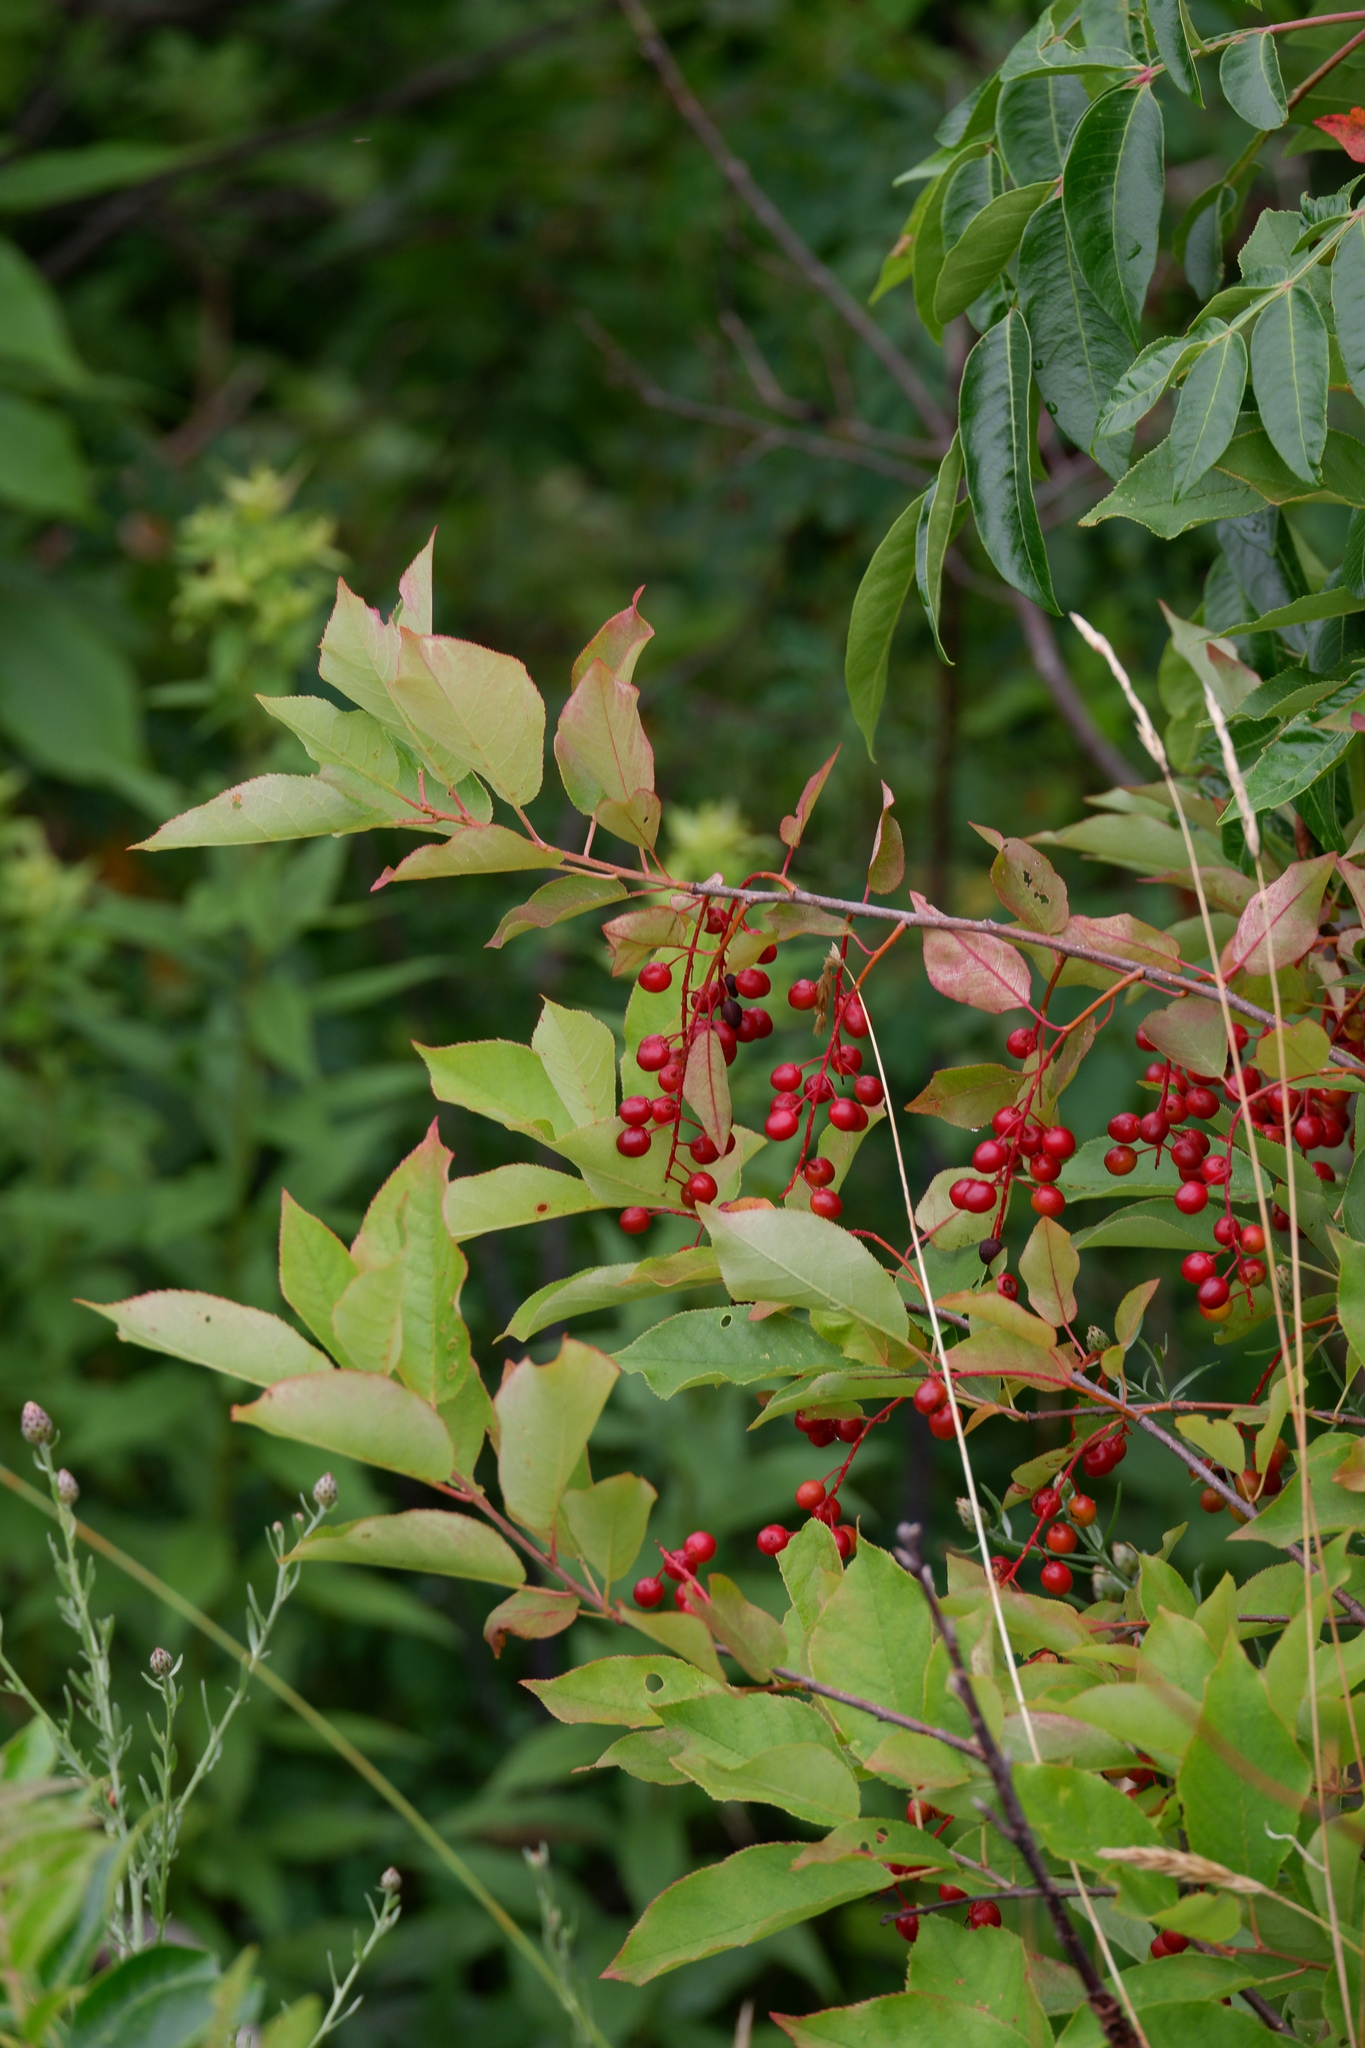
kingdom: Plantae
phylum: Tracheophyta
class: Magnoliopsida
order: Rosales
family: Rosaceae
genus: Prunus
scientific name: Prunus virginiana
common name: Chokecherry
